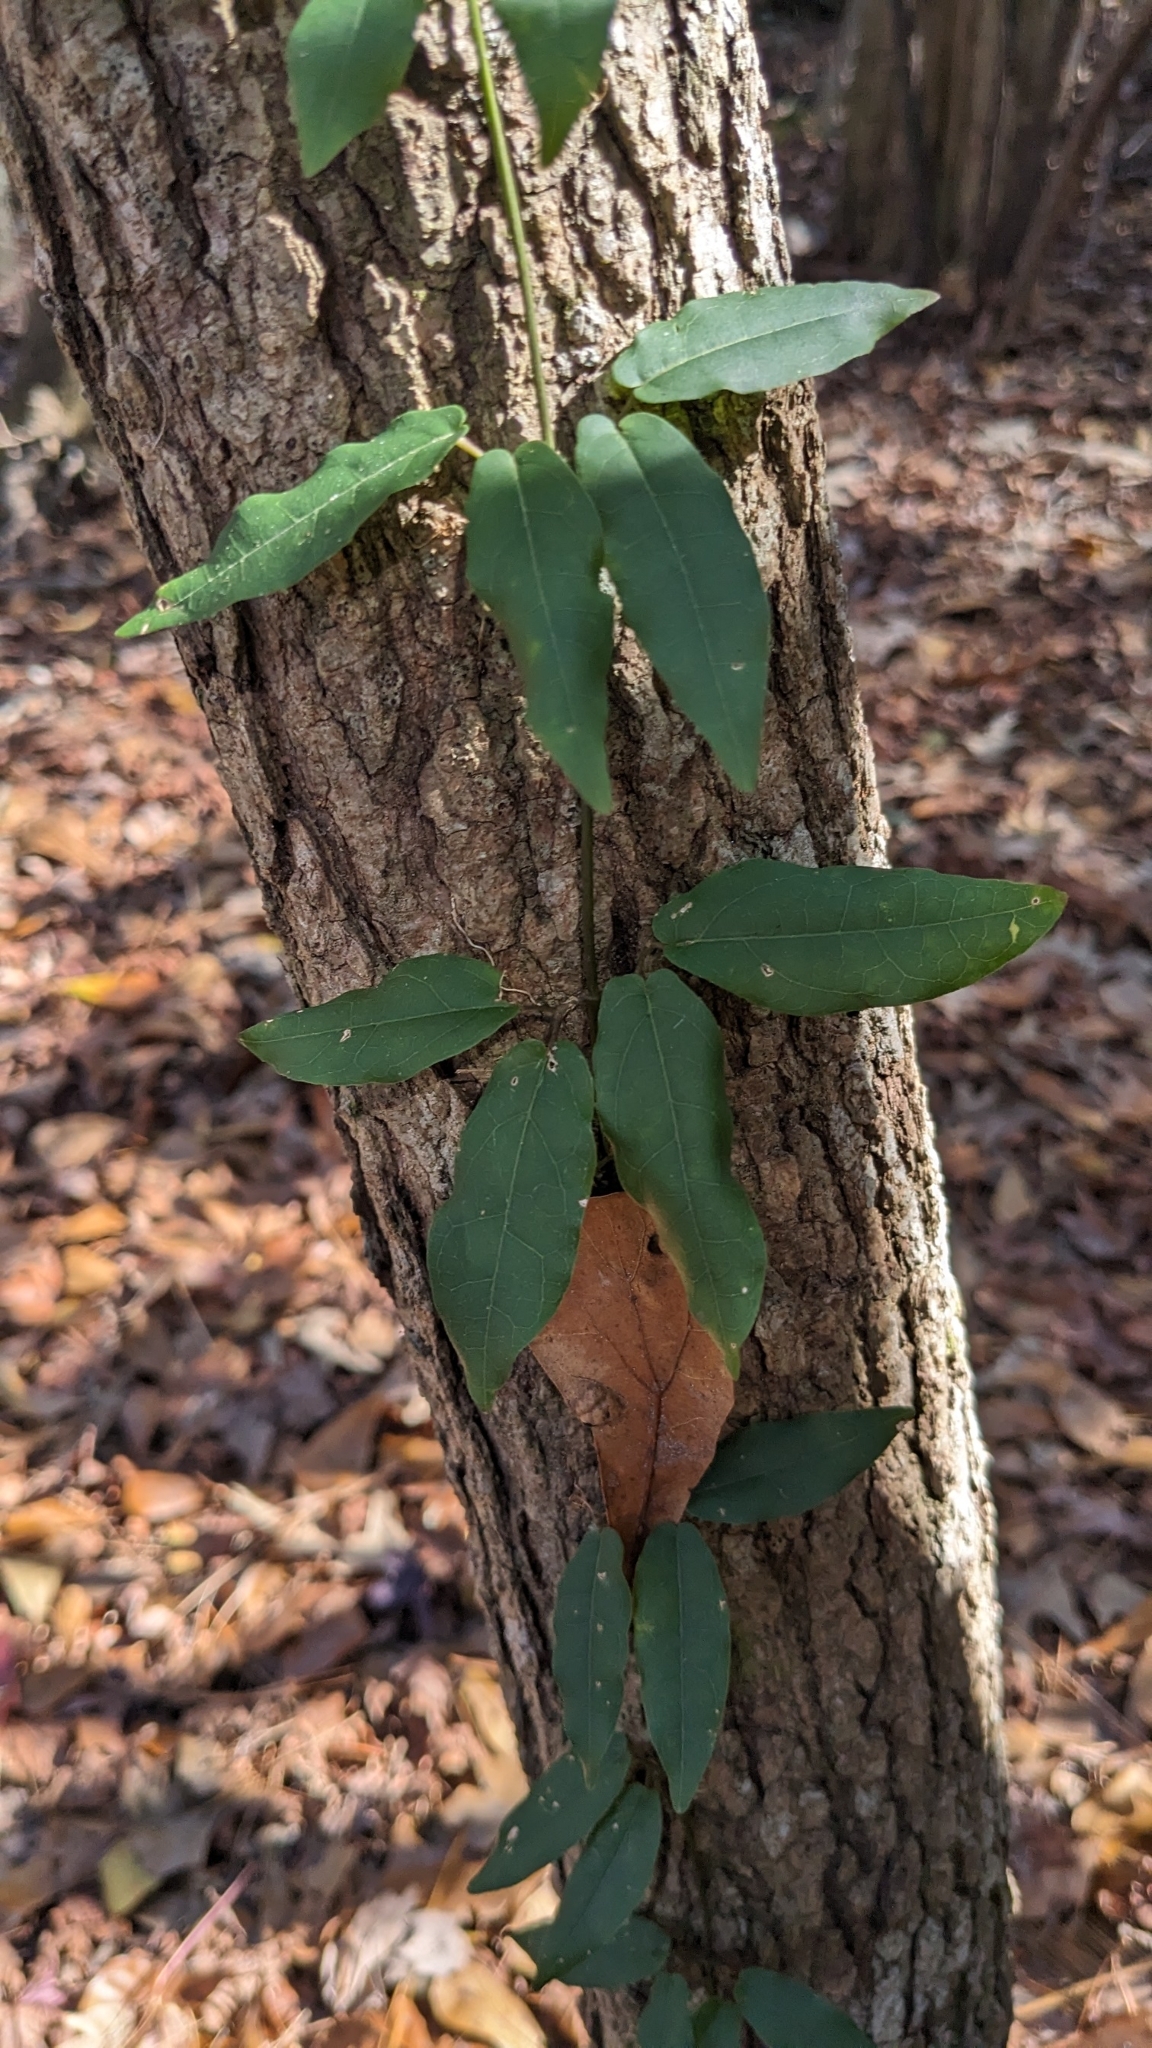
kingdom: Plantae
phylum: Tracheophyta
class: Magnoliopsida
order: Lamiales
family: Bignoniaceae
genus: Bignonia
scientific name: Bignonia capreolata
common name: Crossvine
